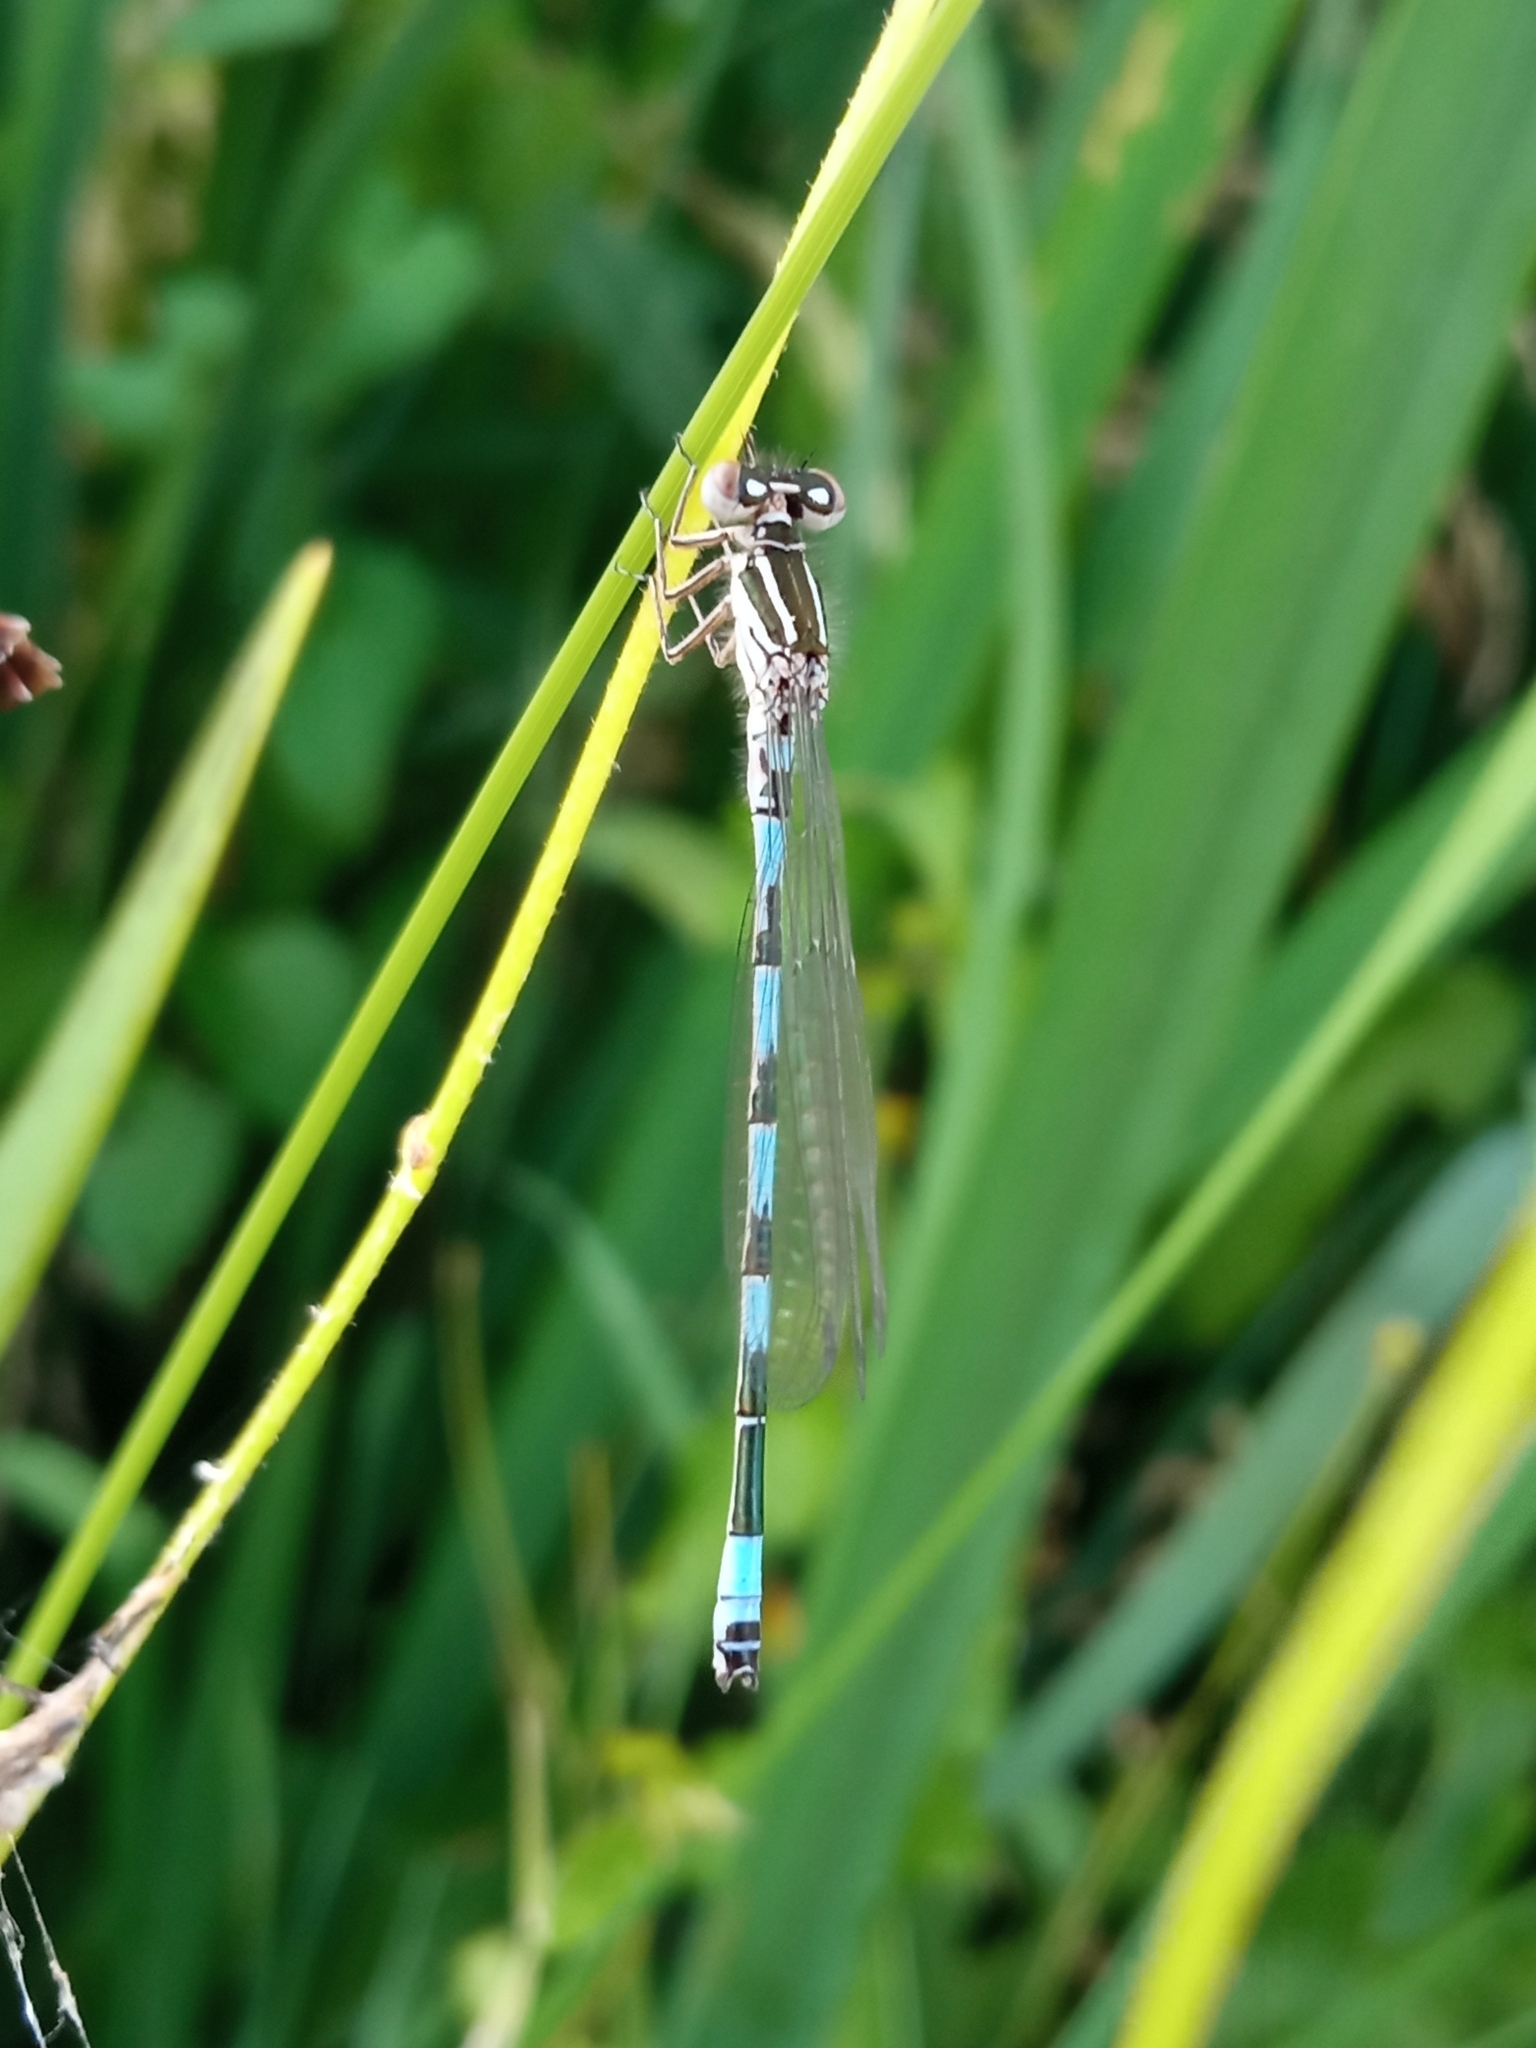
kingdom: Animalia
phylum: Arthropoda
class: Insecta
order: Odonata
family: Coenagrionidae
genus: Coenagrion
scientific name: Coenagrion mercuriale
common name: Southern damselfly
